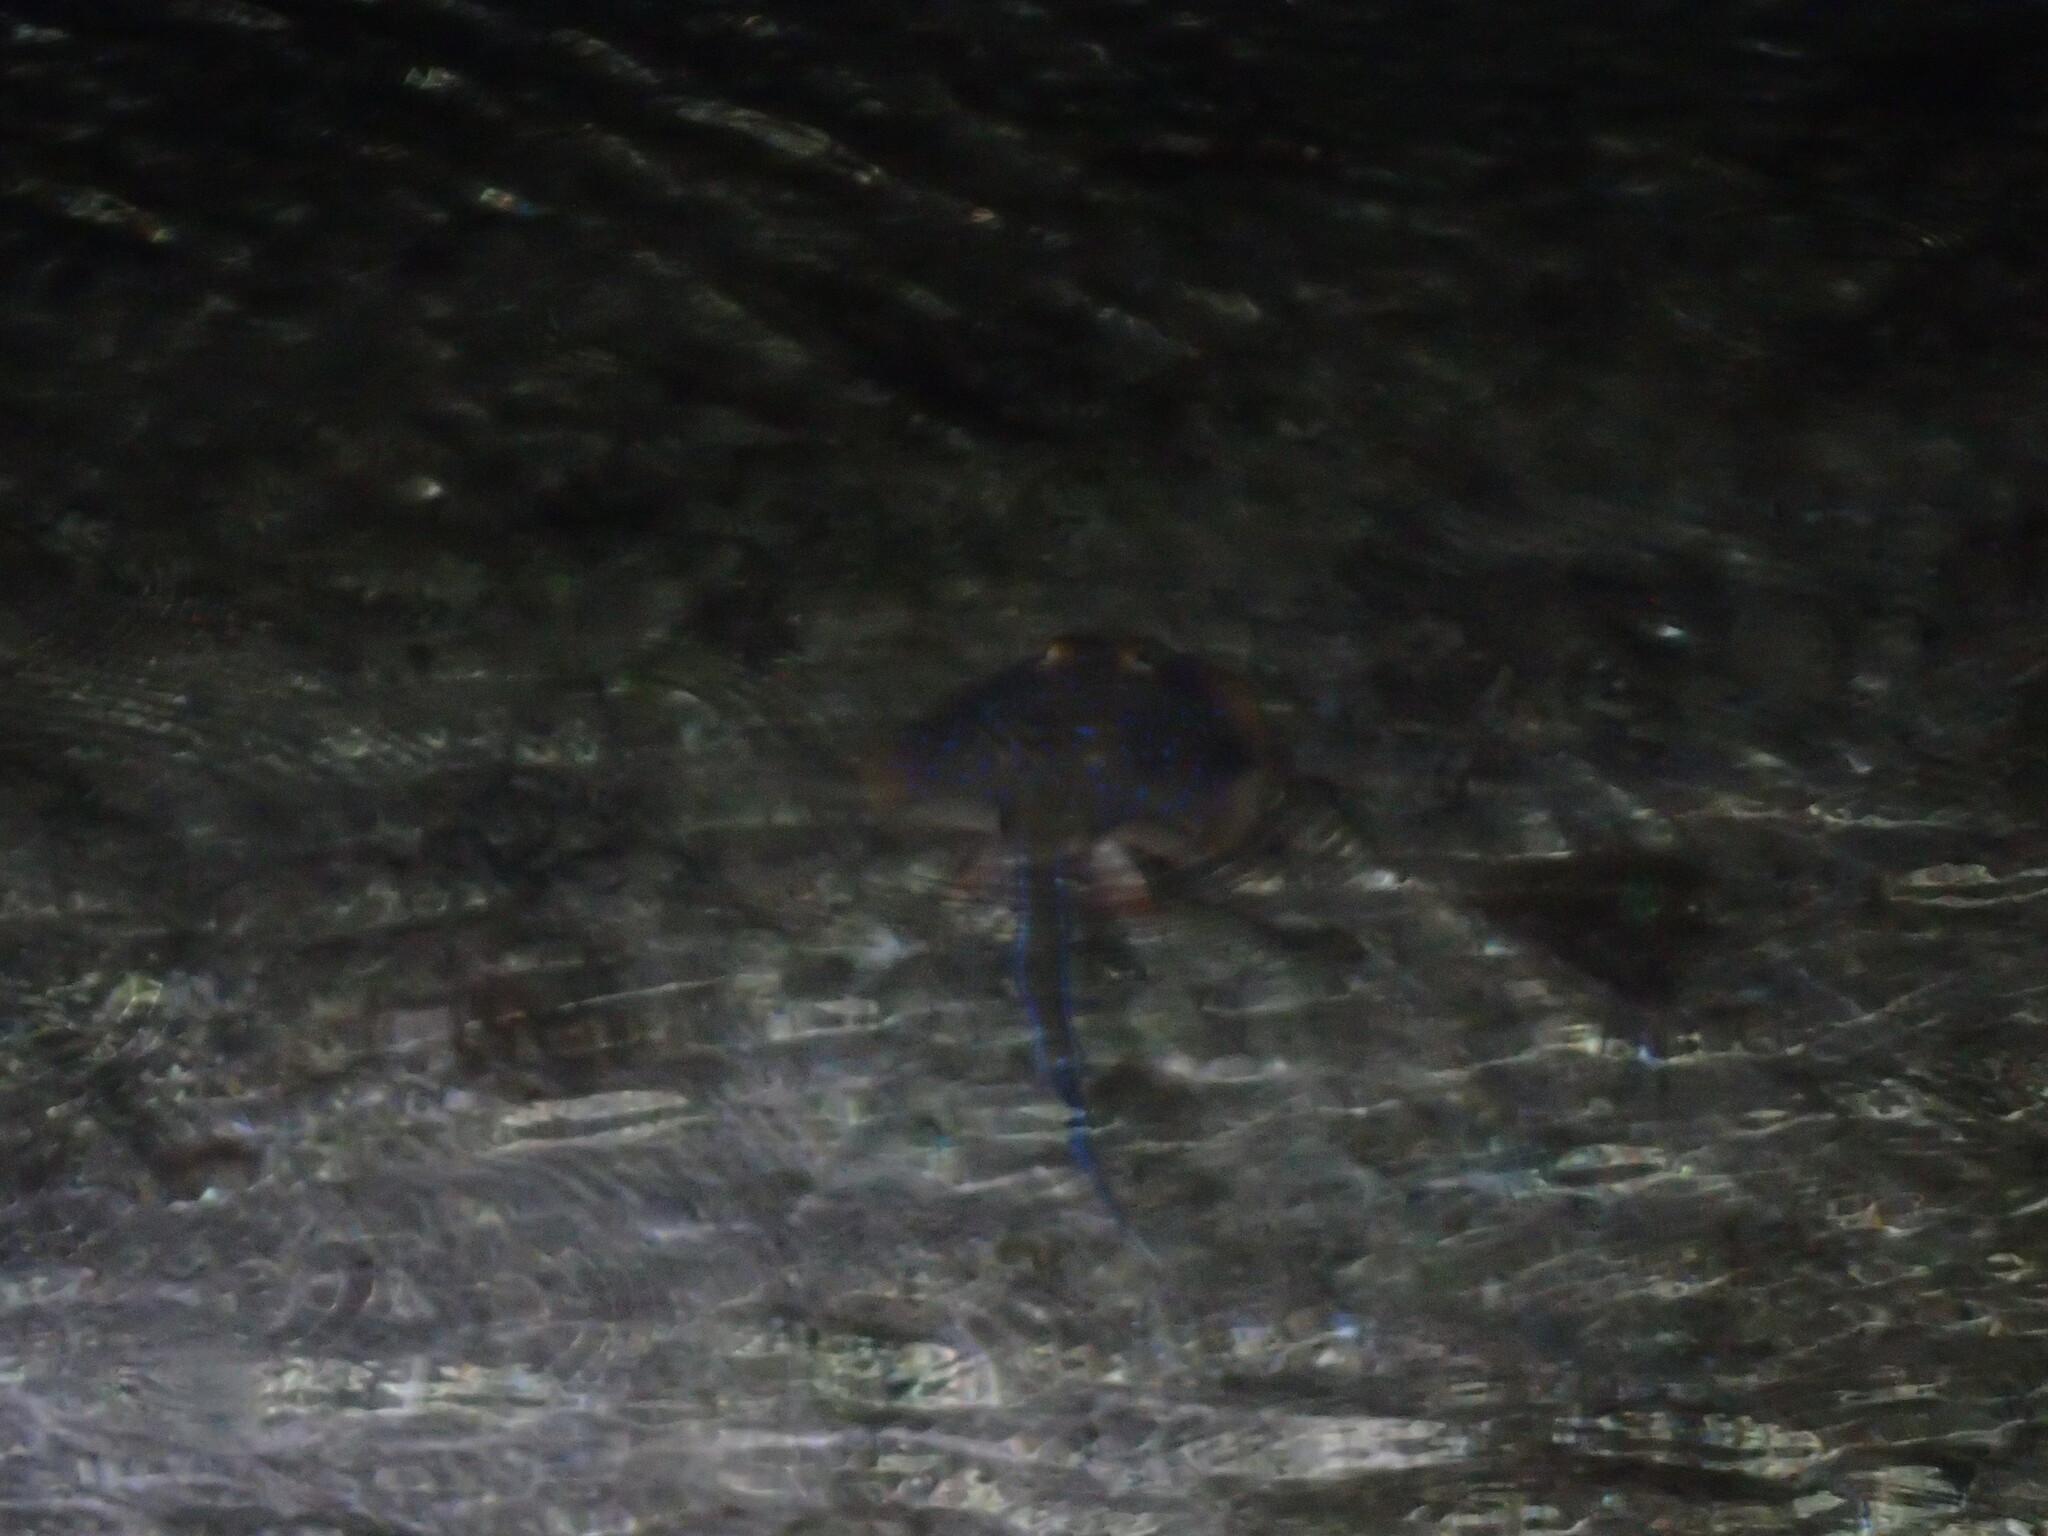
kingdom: Animalia
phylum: Chordata
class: Elasmobranchii
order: Myliobatiformes
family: Dasyatidae
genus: Taeniura
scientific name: Taeniura lymma
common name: Bluespotted ribbontail ray
